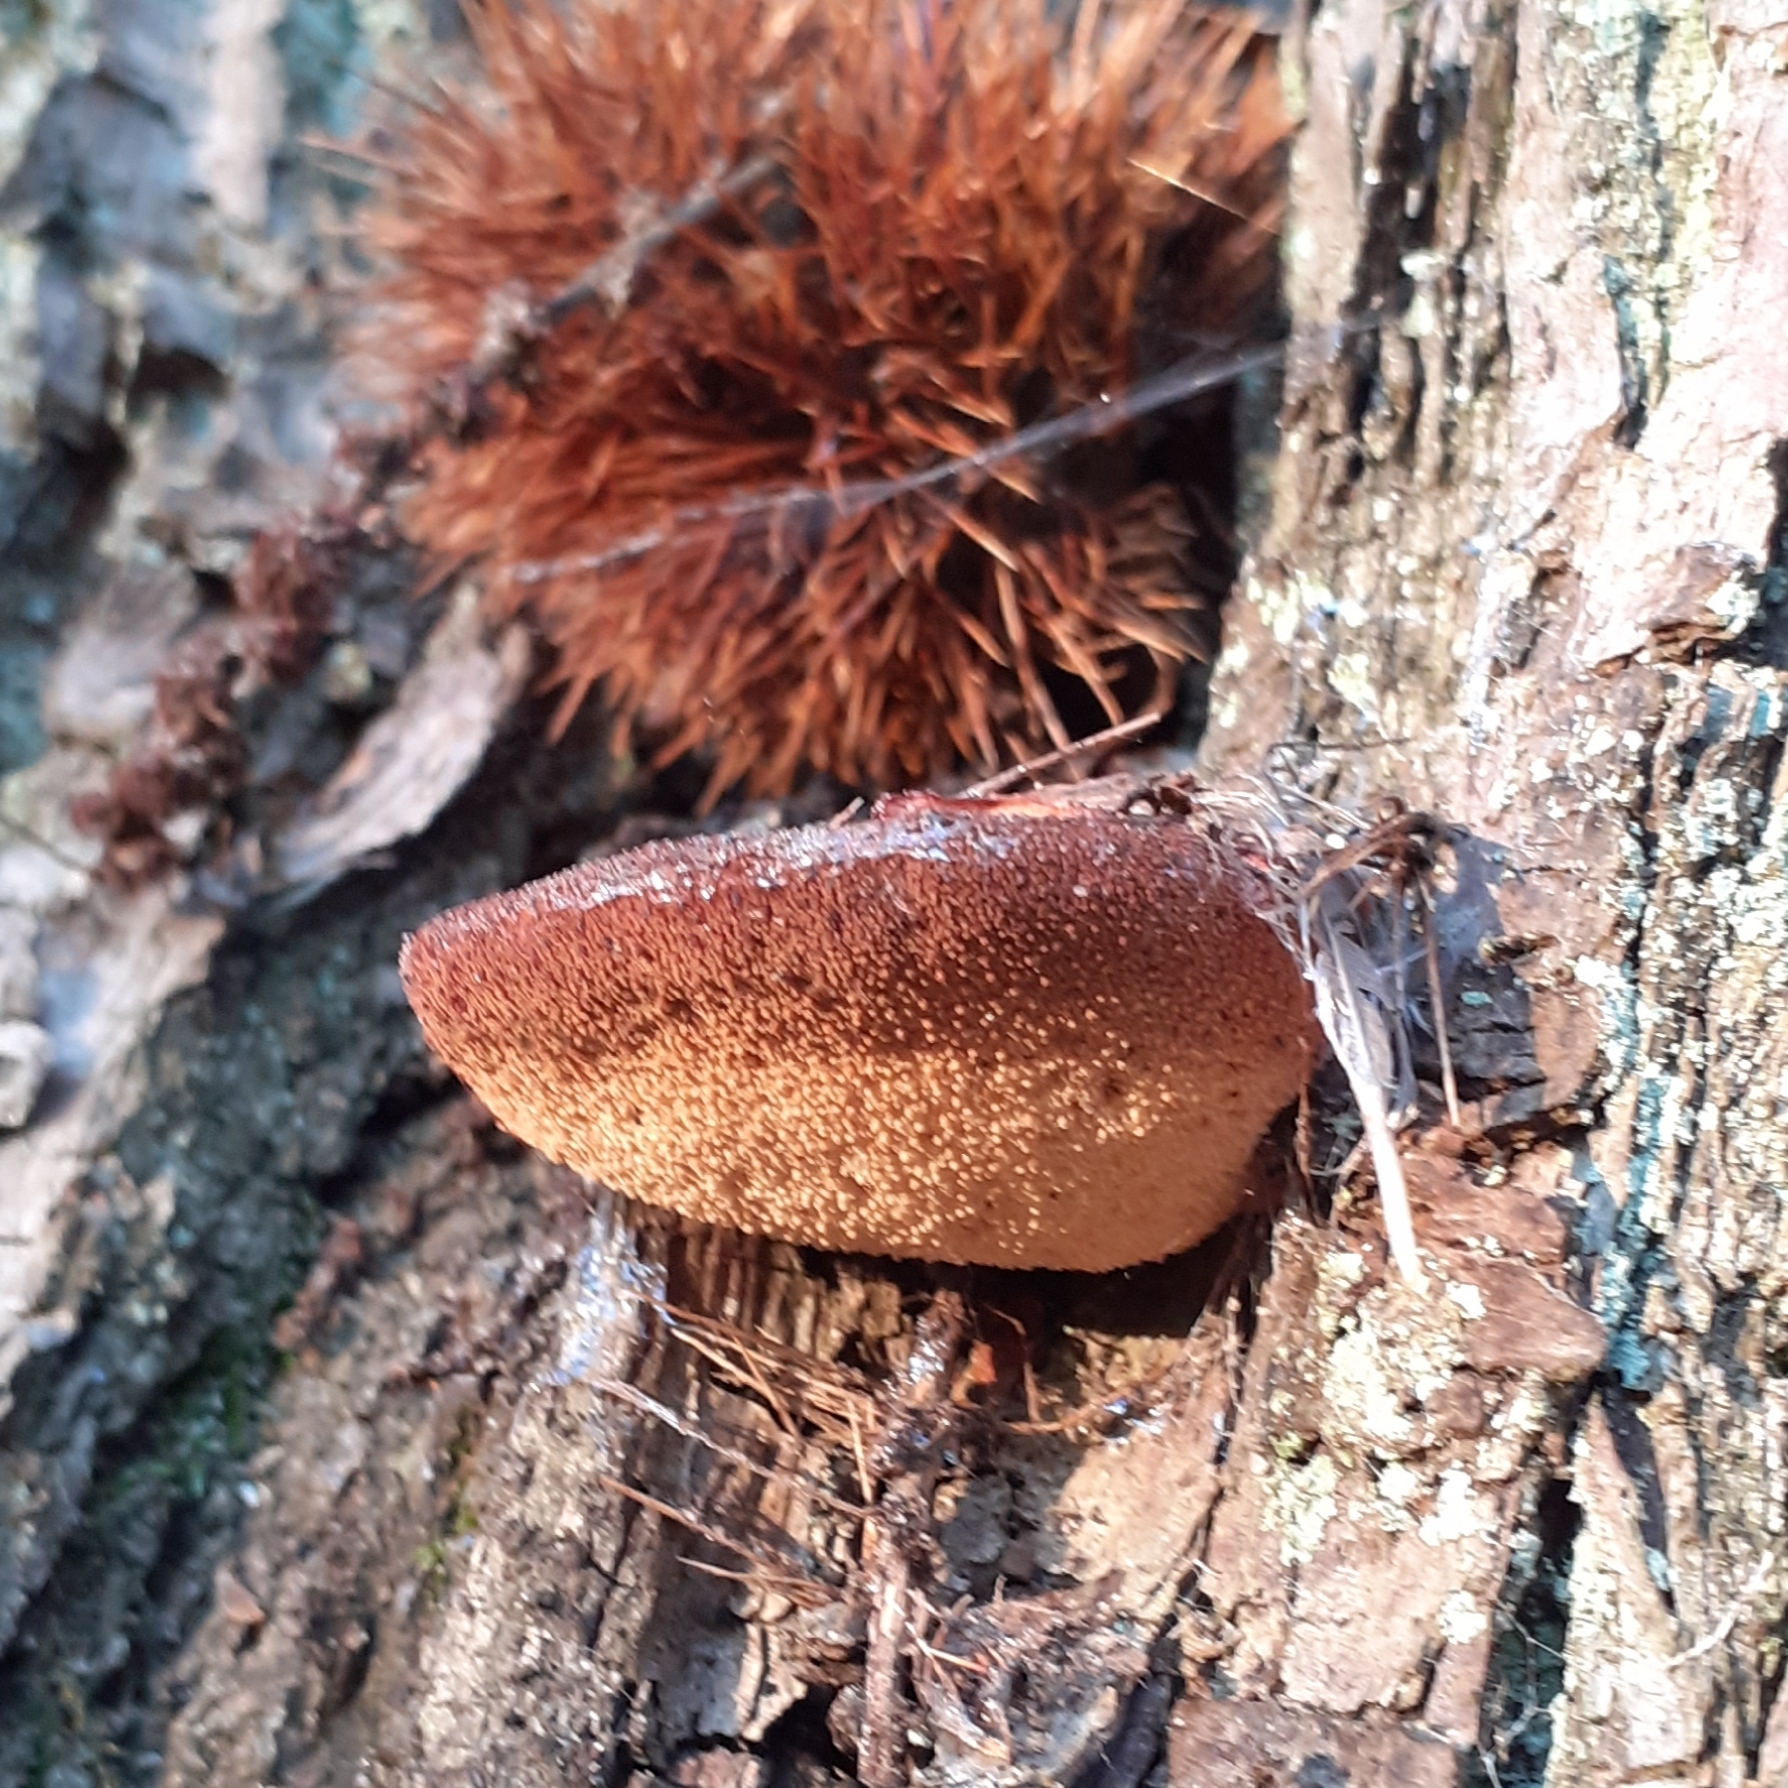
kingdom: Fungi
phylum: Basidiomycota
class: Agaricomycetes
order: Agaricales
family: Fistulinaceae
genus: Fistulina
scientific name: Fistulina hepatica
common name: Beef-steak fungus
